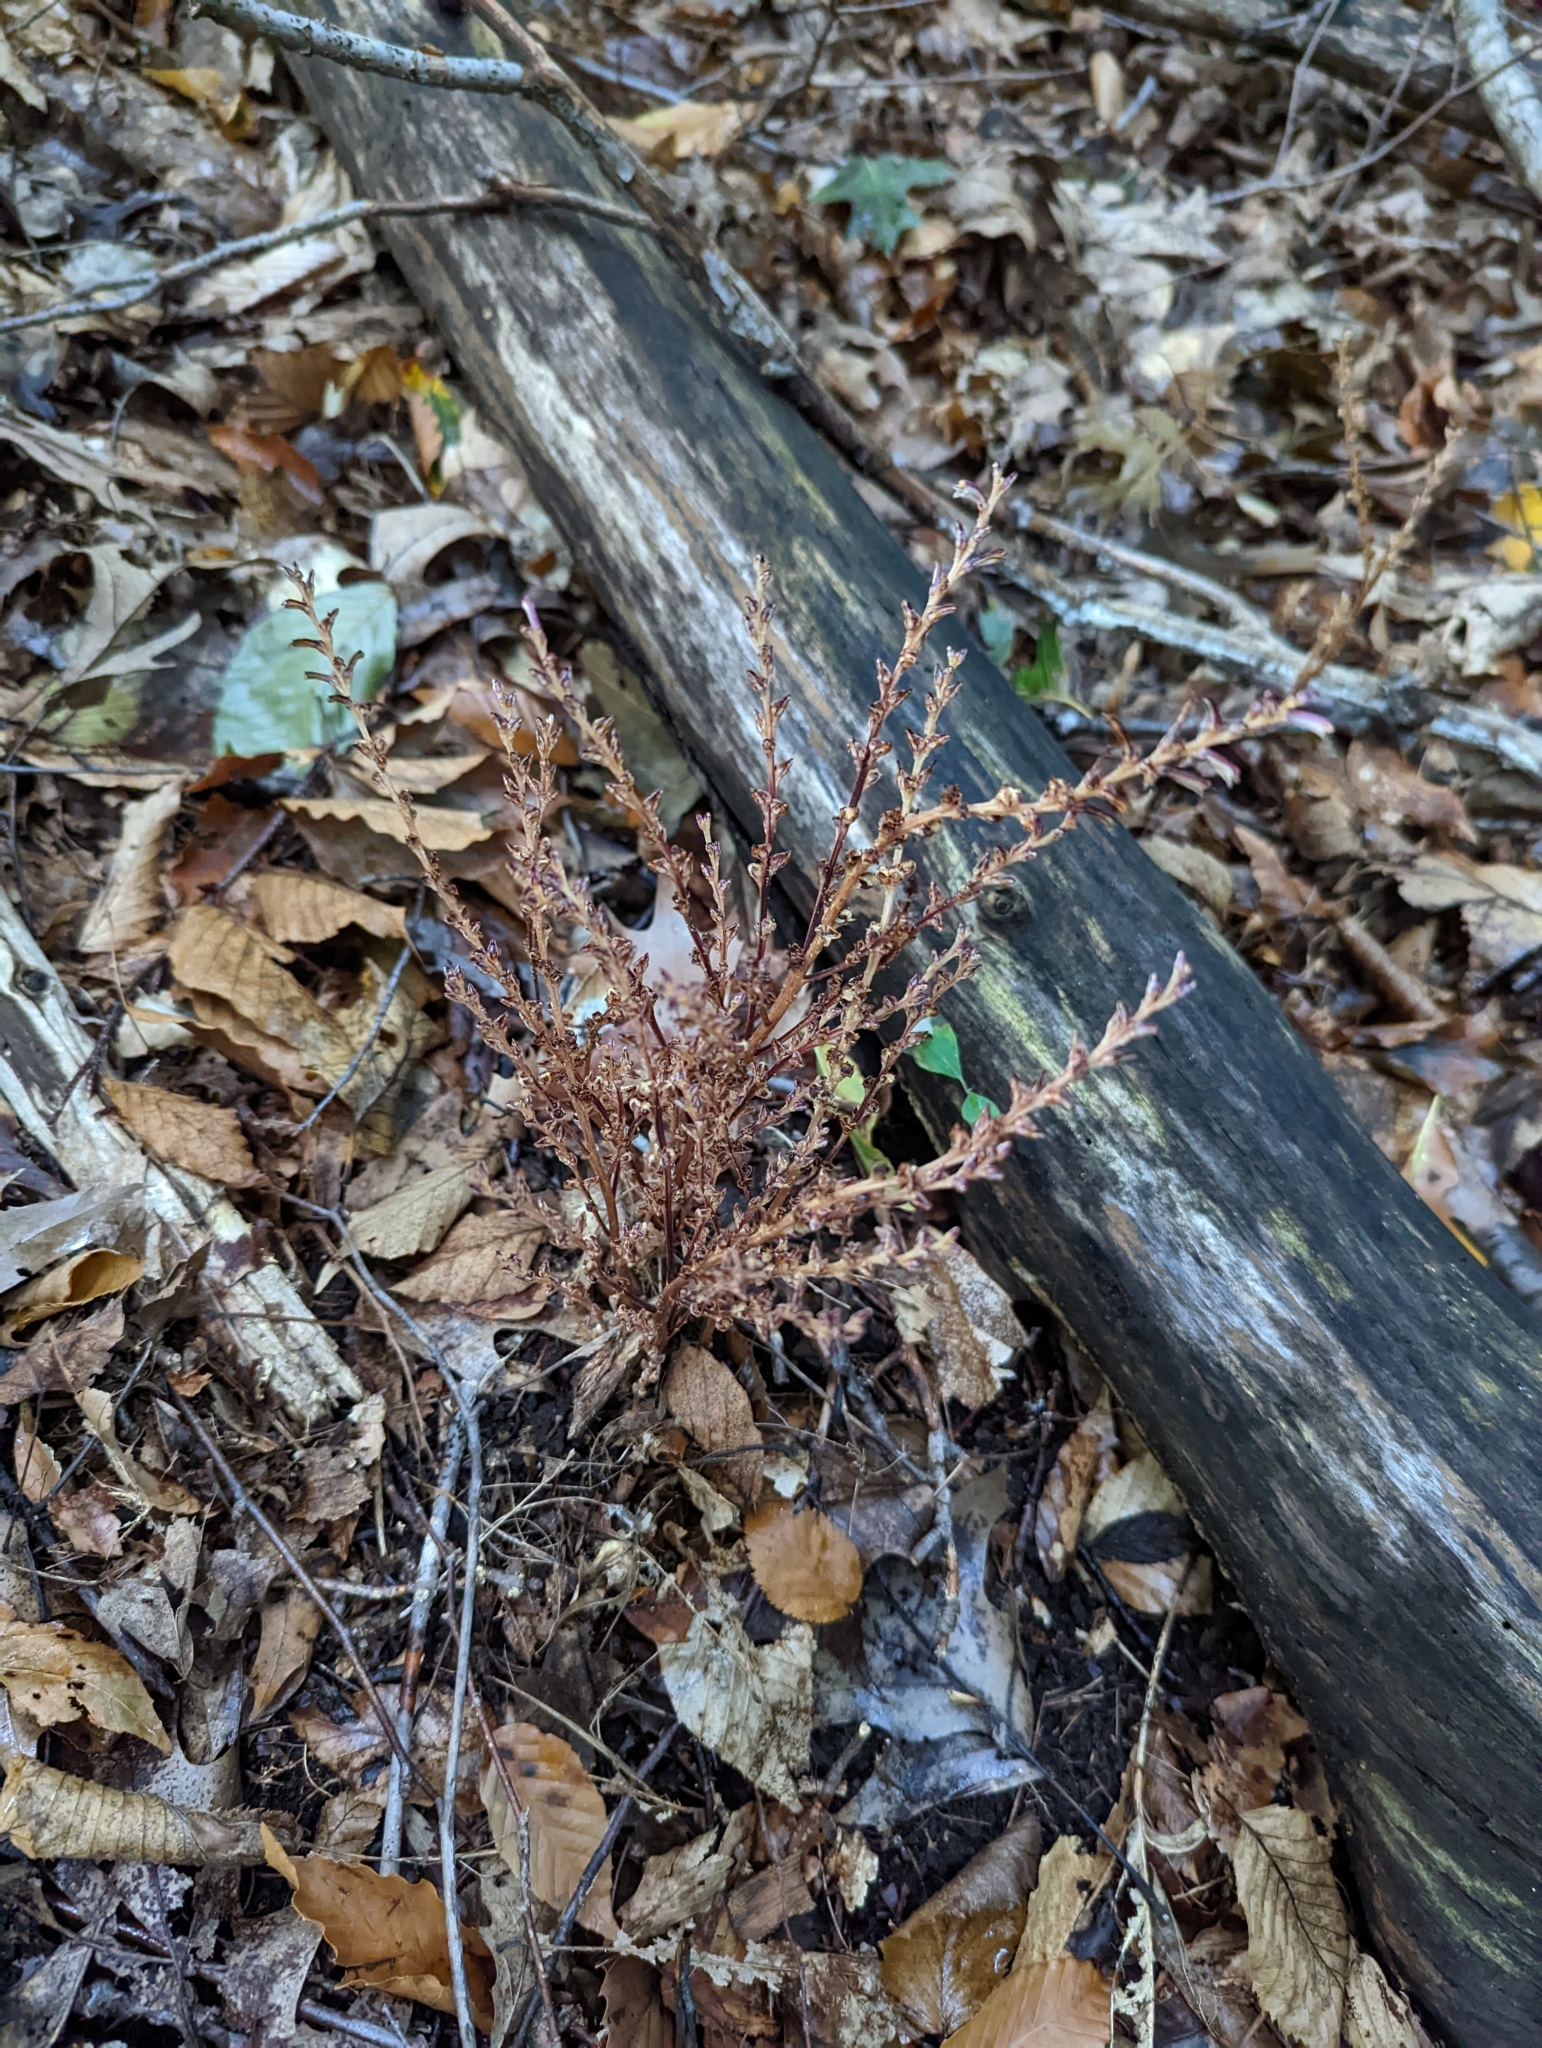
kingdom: Plantae
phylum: Tracheophyta
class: Magnoliopsida
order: Lamiales
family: Orobanchaceae
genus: Epifagus
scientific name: Epifagus virginiana
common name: Beechdrops
